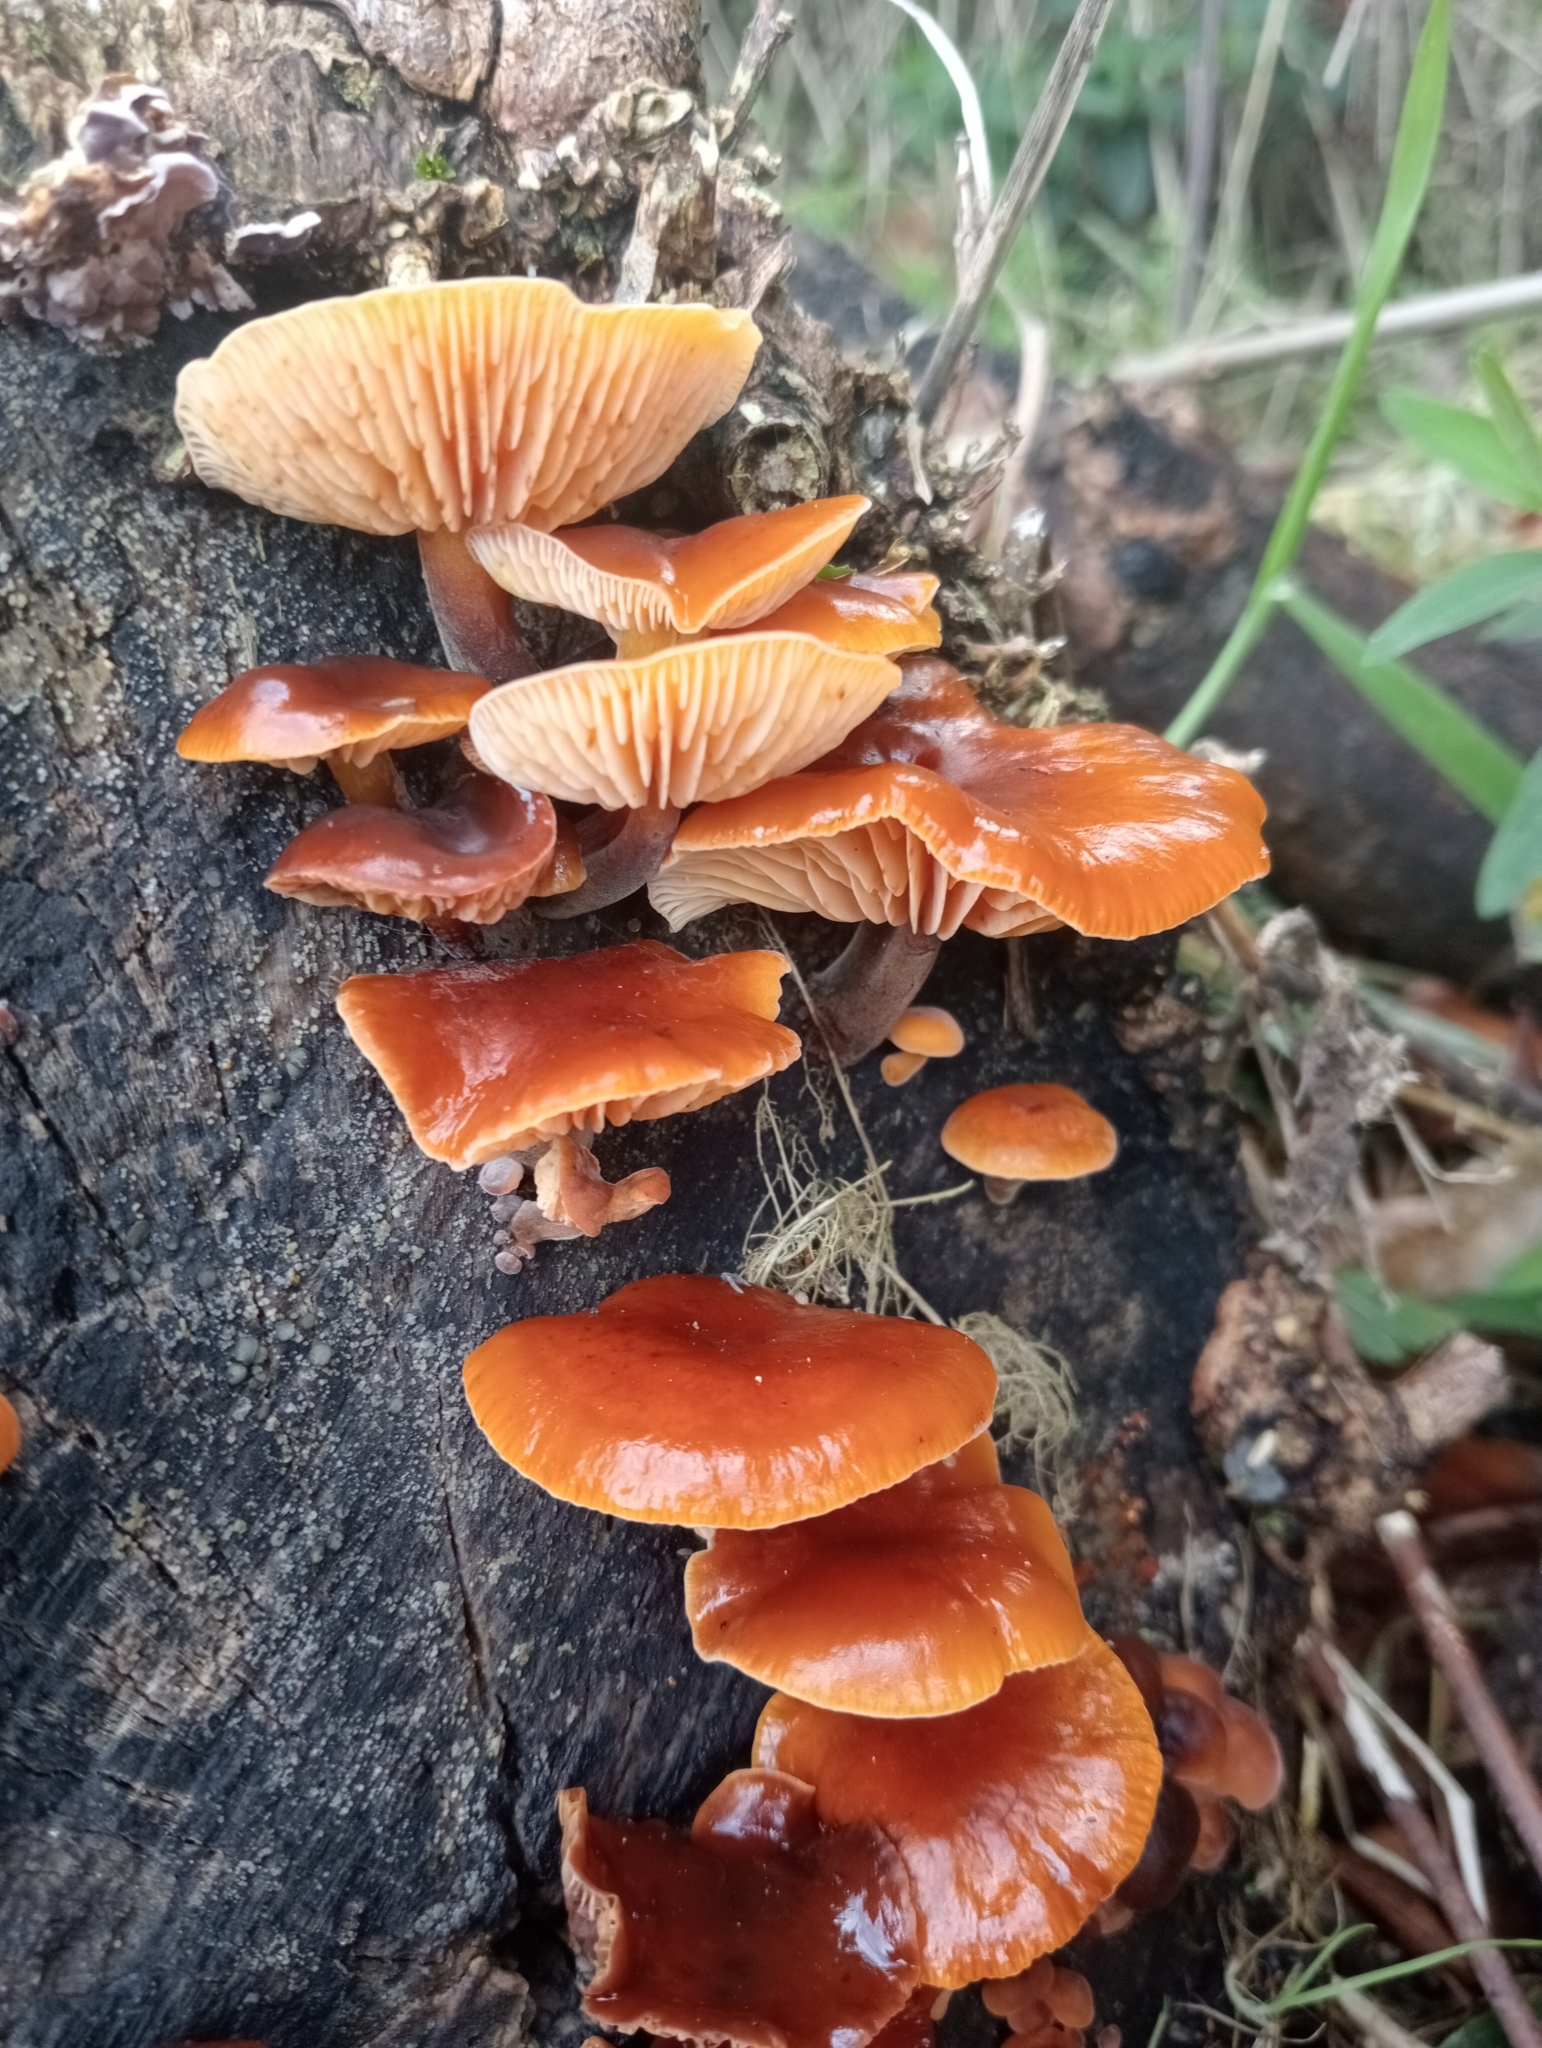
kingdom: Fungi
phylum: Basidiomycota
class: Agaricomycetes
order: Agaricales
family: Physalacriaceae
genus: Flammulina
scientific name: Flammulina velutipes
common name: Velvet shank
